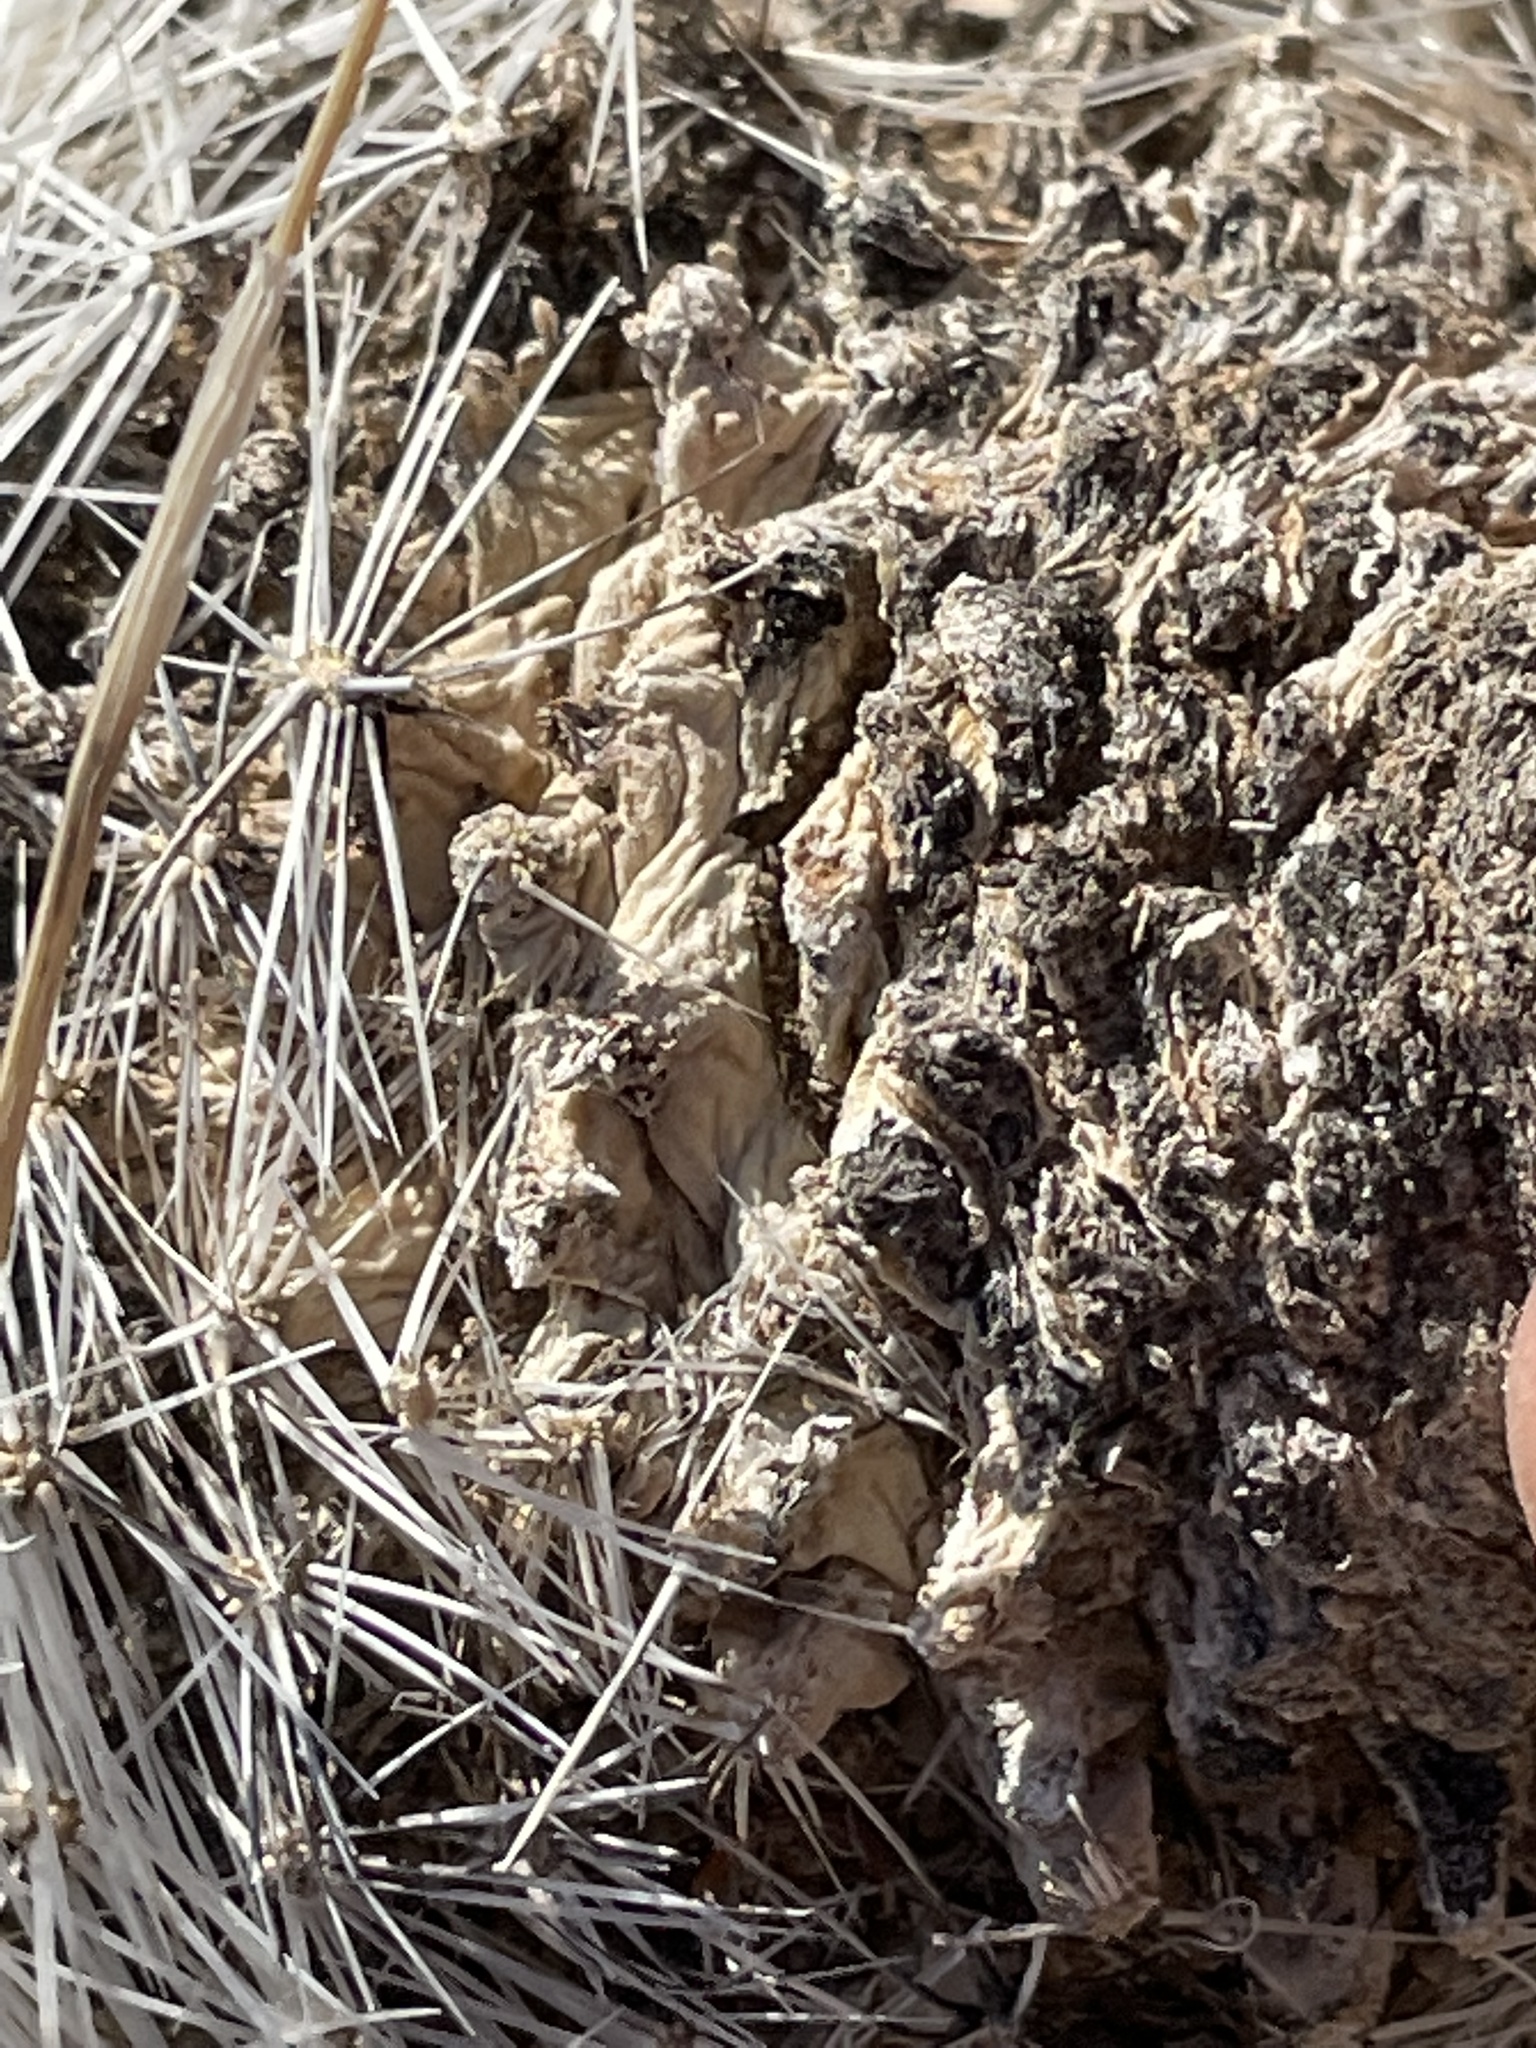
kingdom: Plantae
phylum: Tracheophyta
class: Magnoliopsida
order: Caryophyllales
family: Cactaceae
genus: Pelecyphora
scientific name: Pelecyphora dasyacantha
